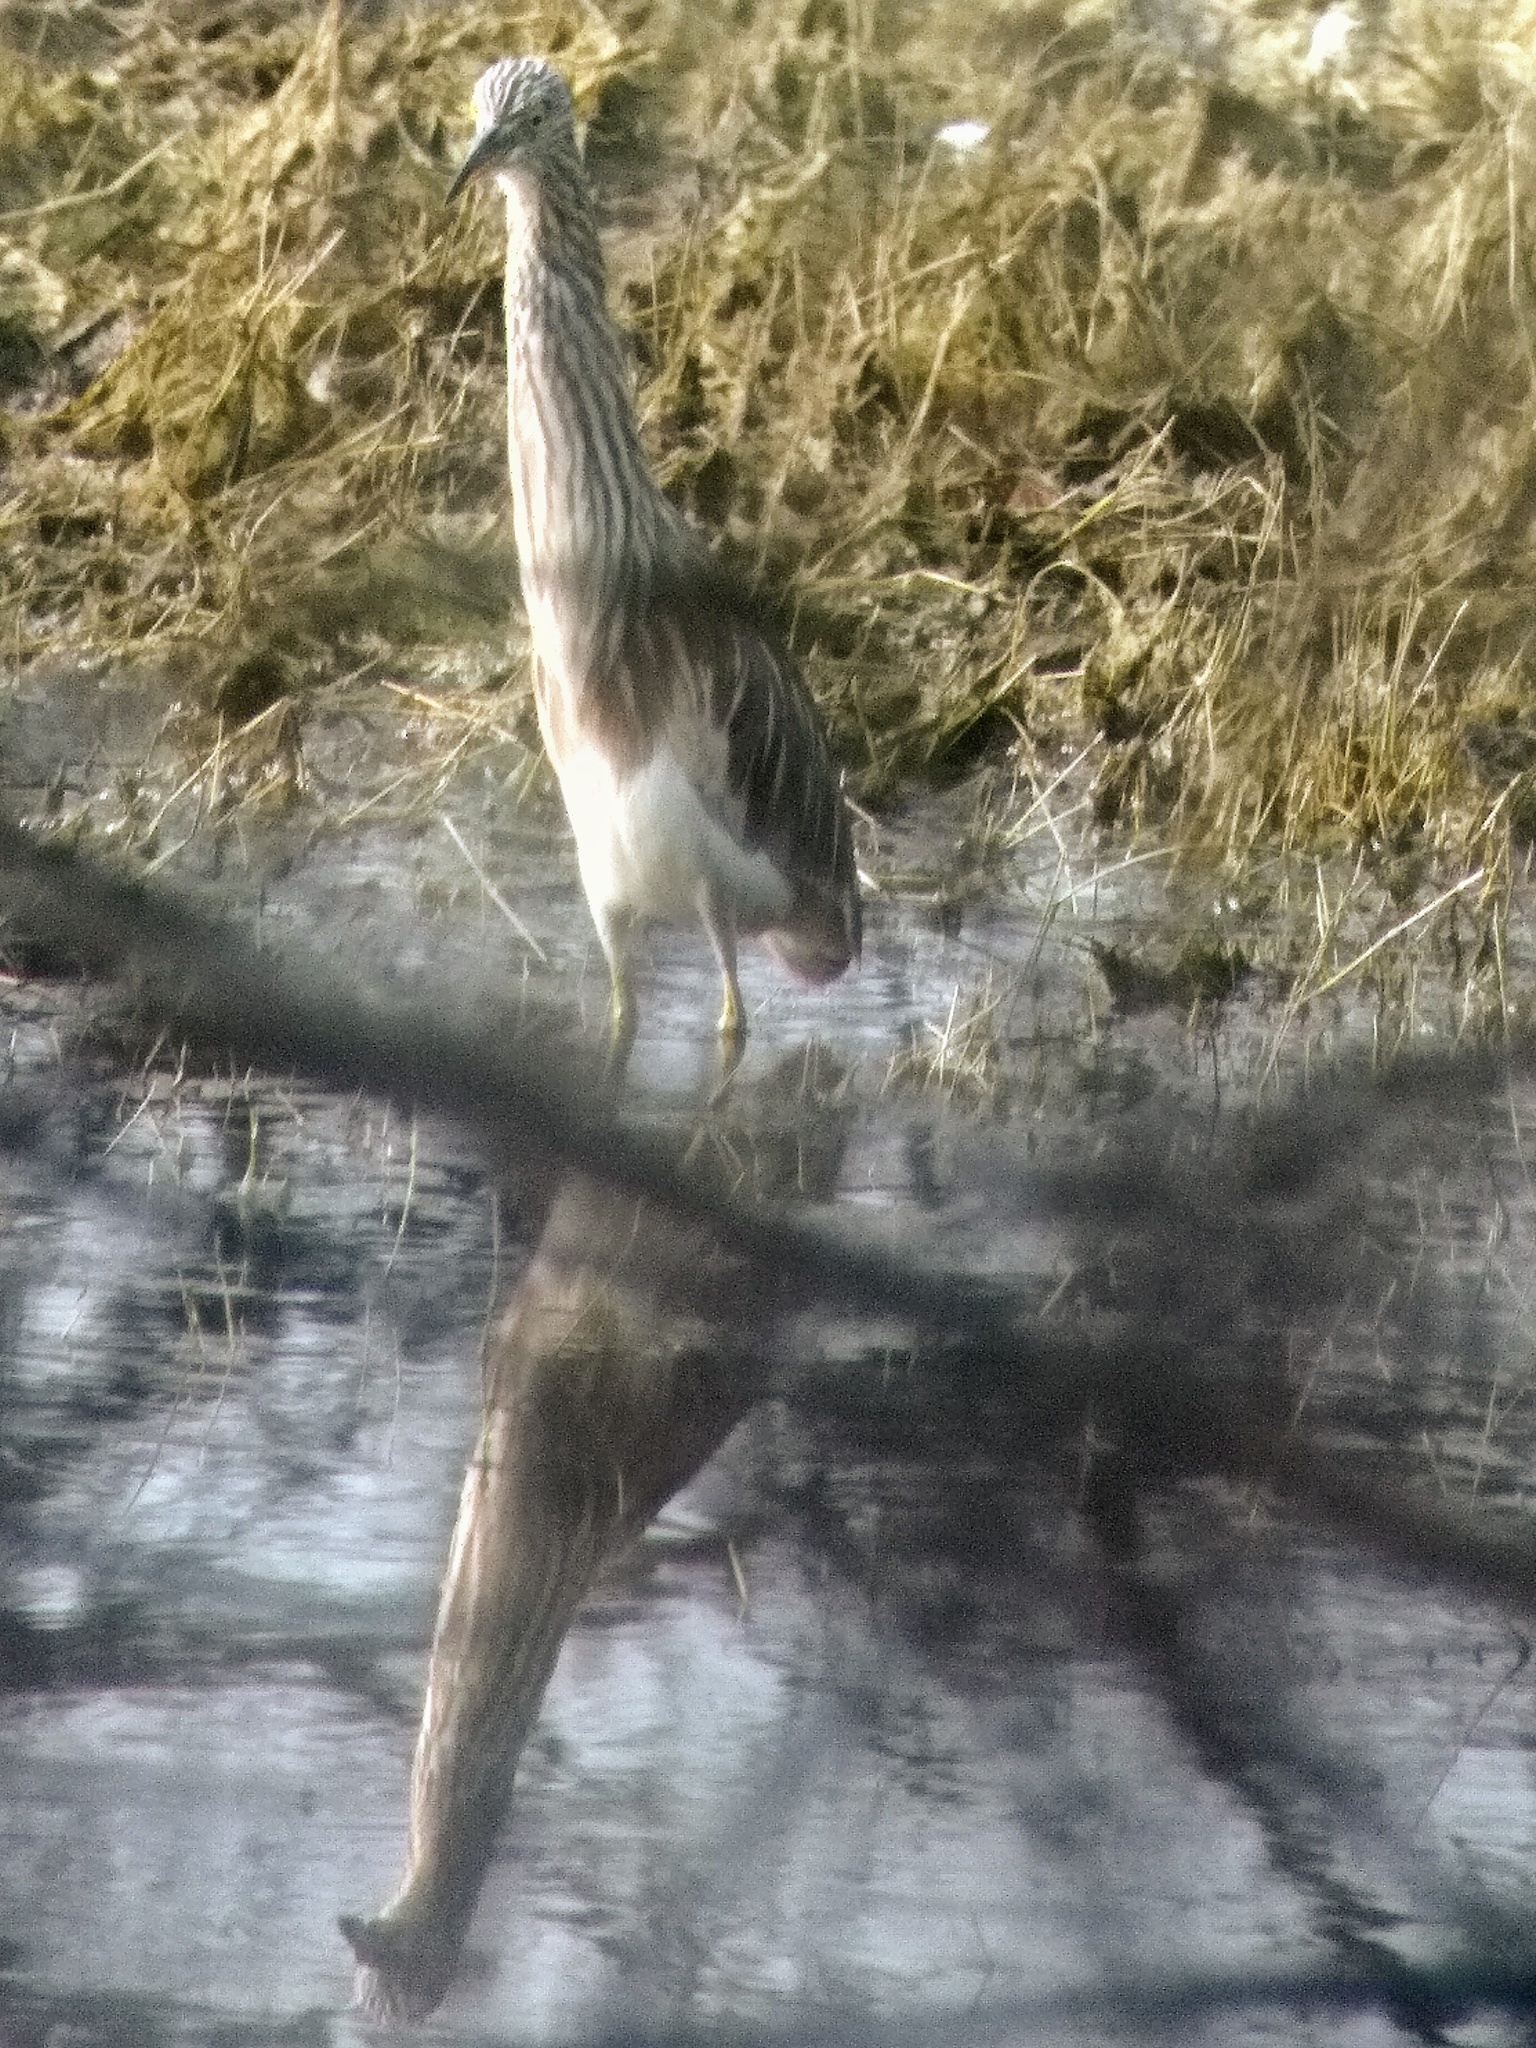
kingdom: Animalia
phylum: Chordata
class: Aves
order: Pelecaniformes
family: Ardeidae
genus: Ardeola
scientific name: Ardeola grayii
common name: Indian pond heron
